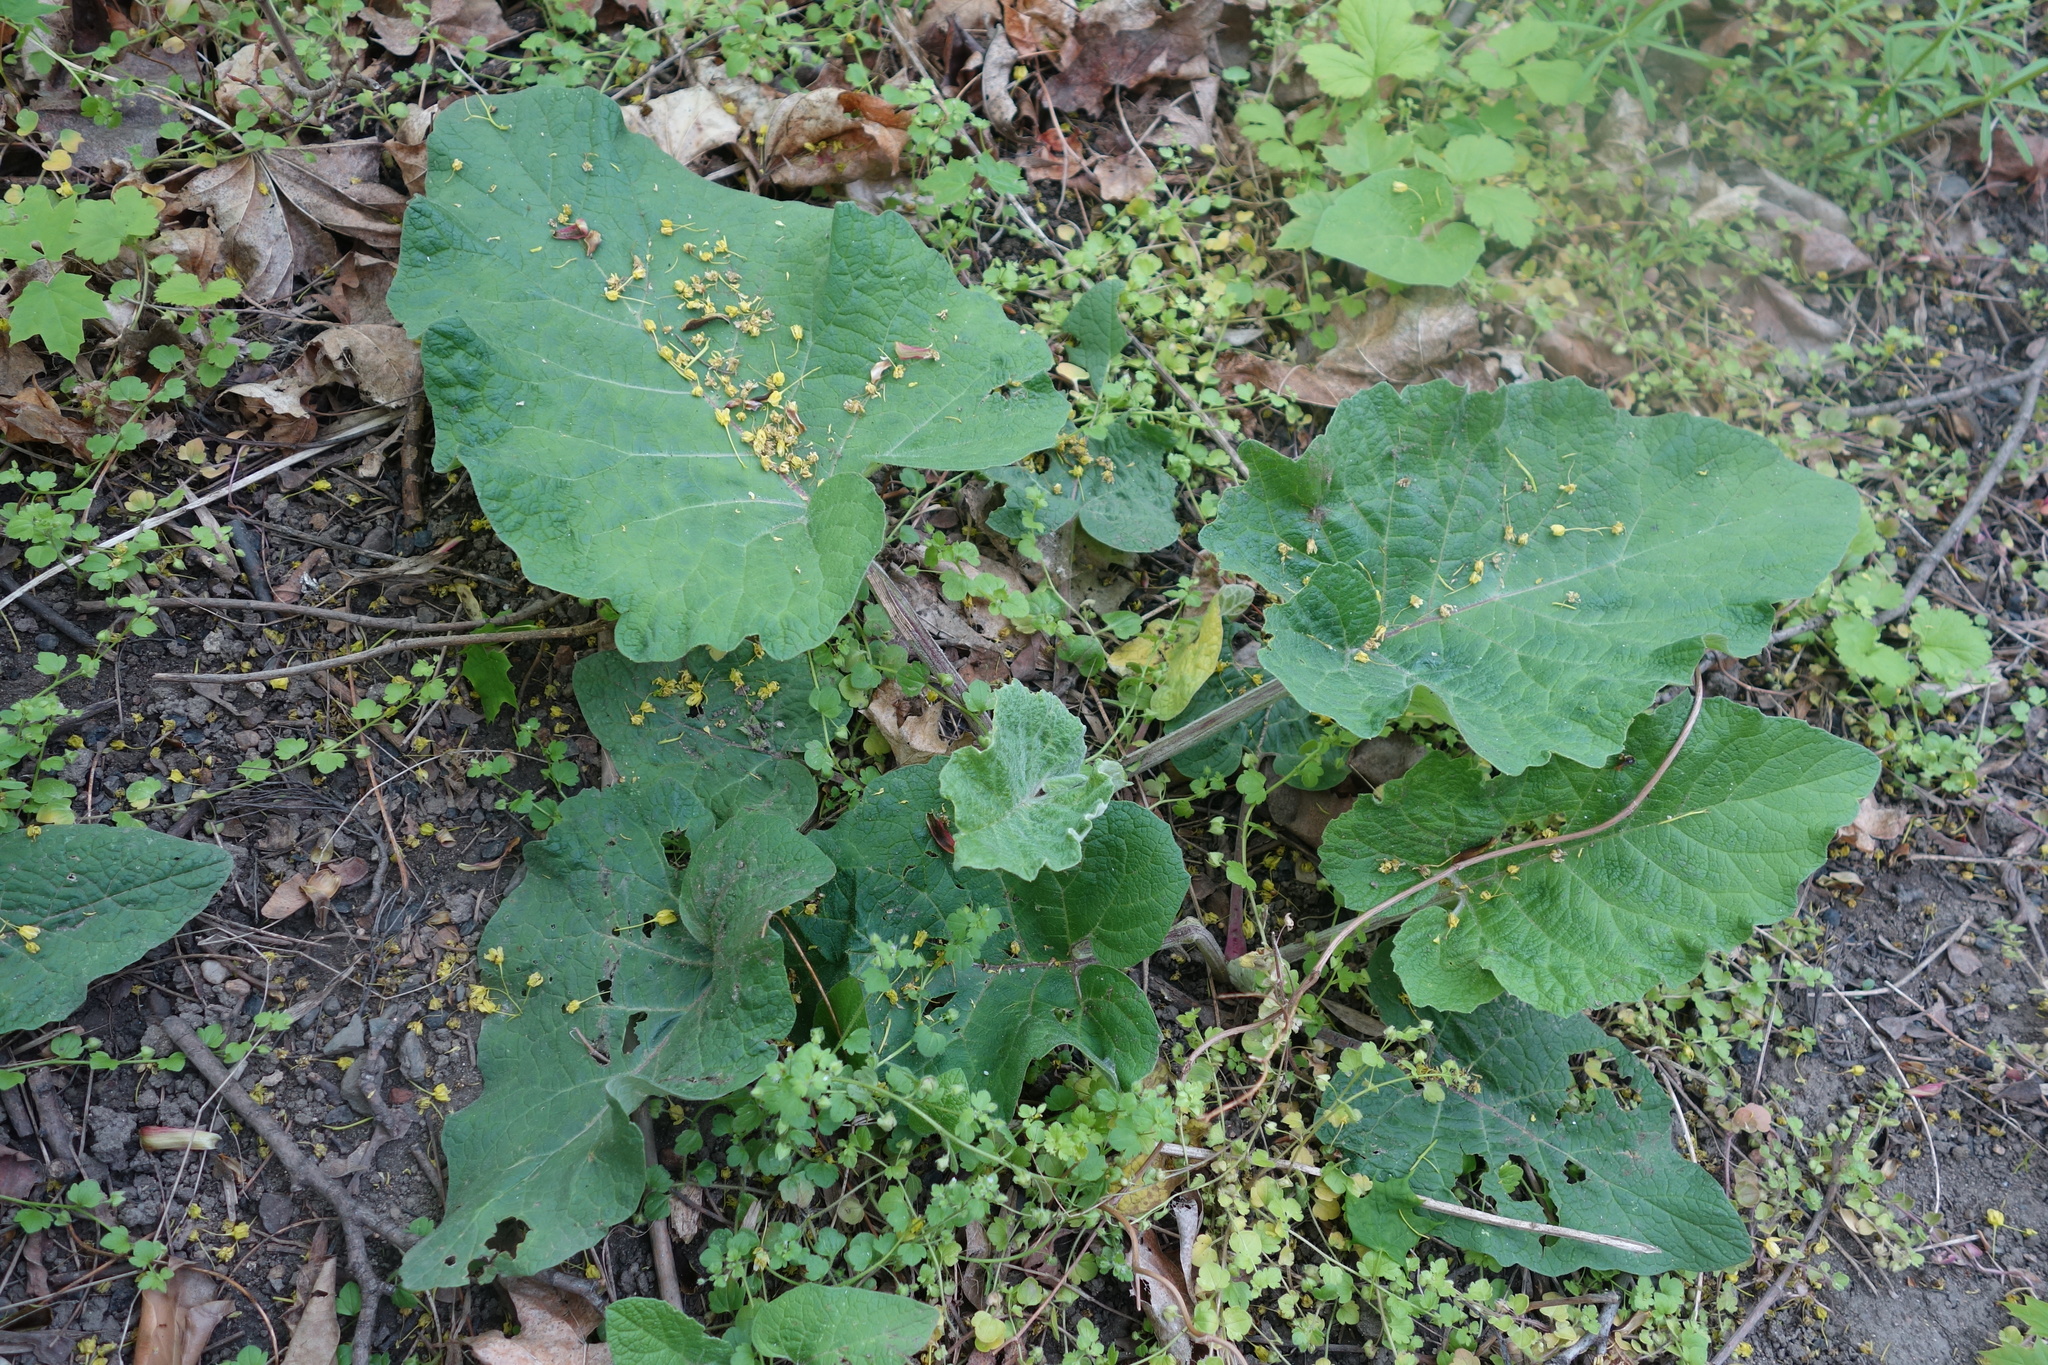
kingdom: Plantae
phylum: Tracheophyta
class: Magnoliopsida
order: Asterales
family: Asteraceae
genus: Arctium
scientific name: Arctium
